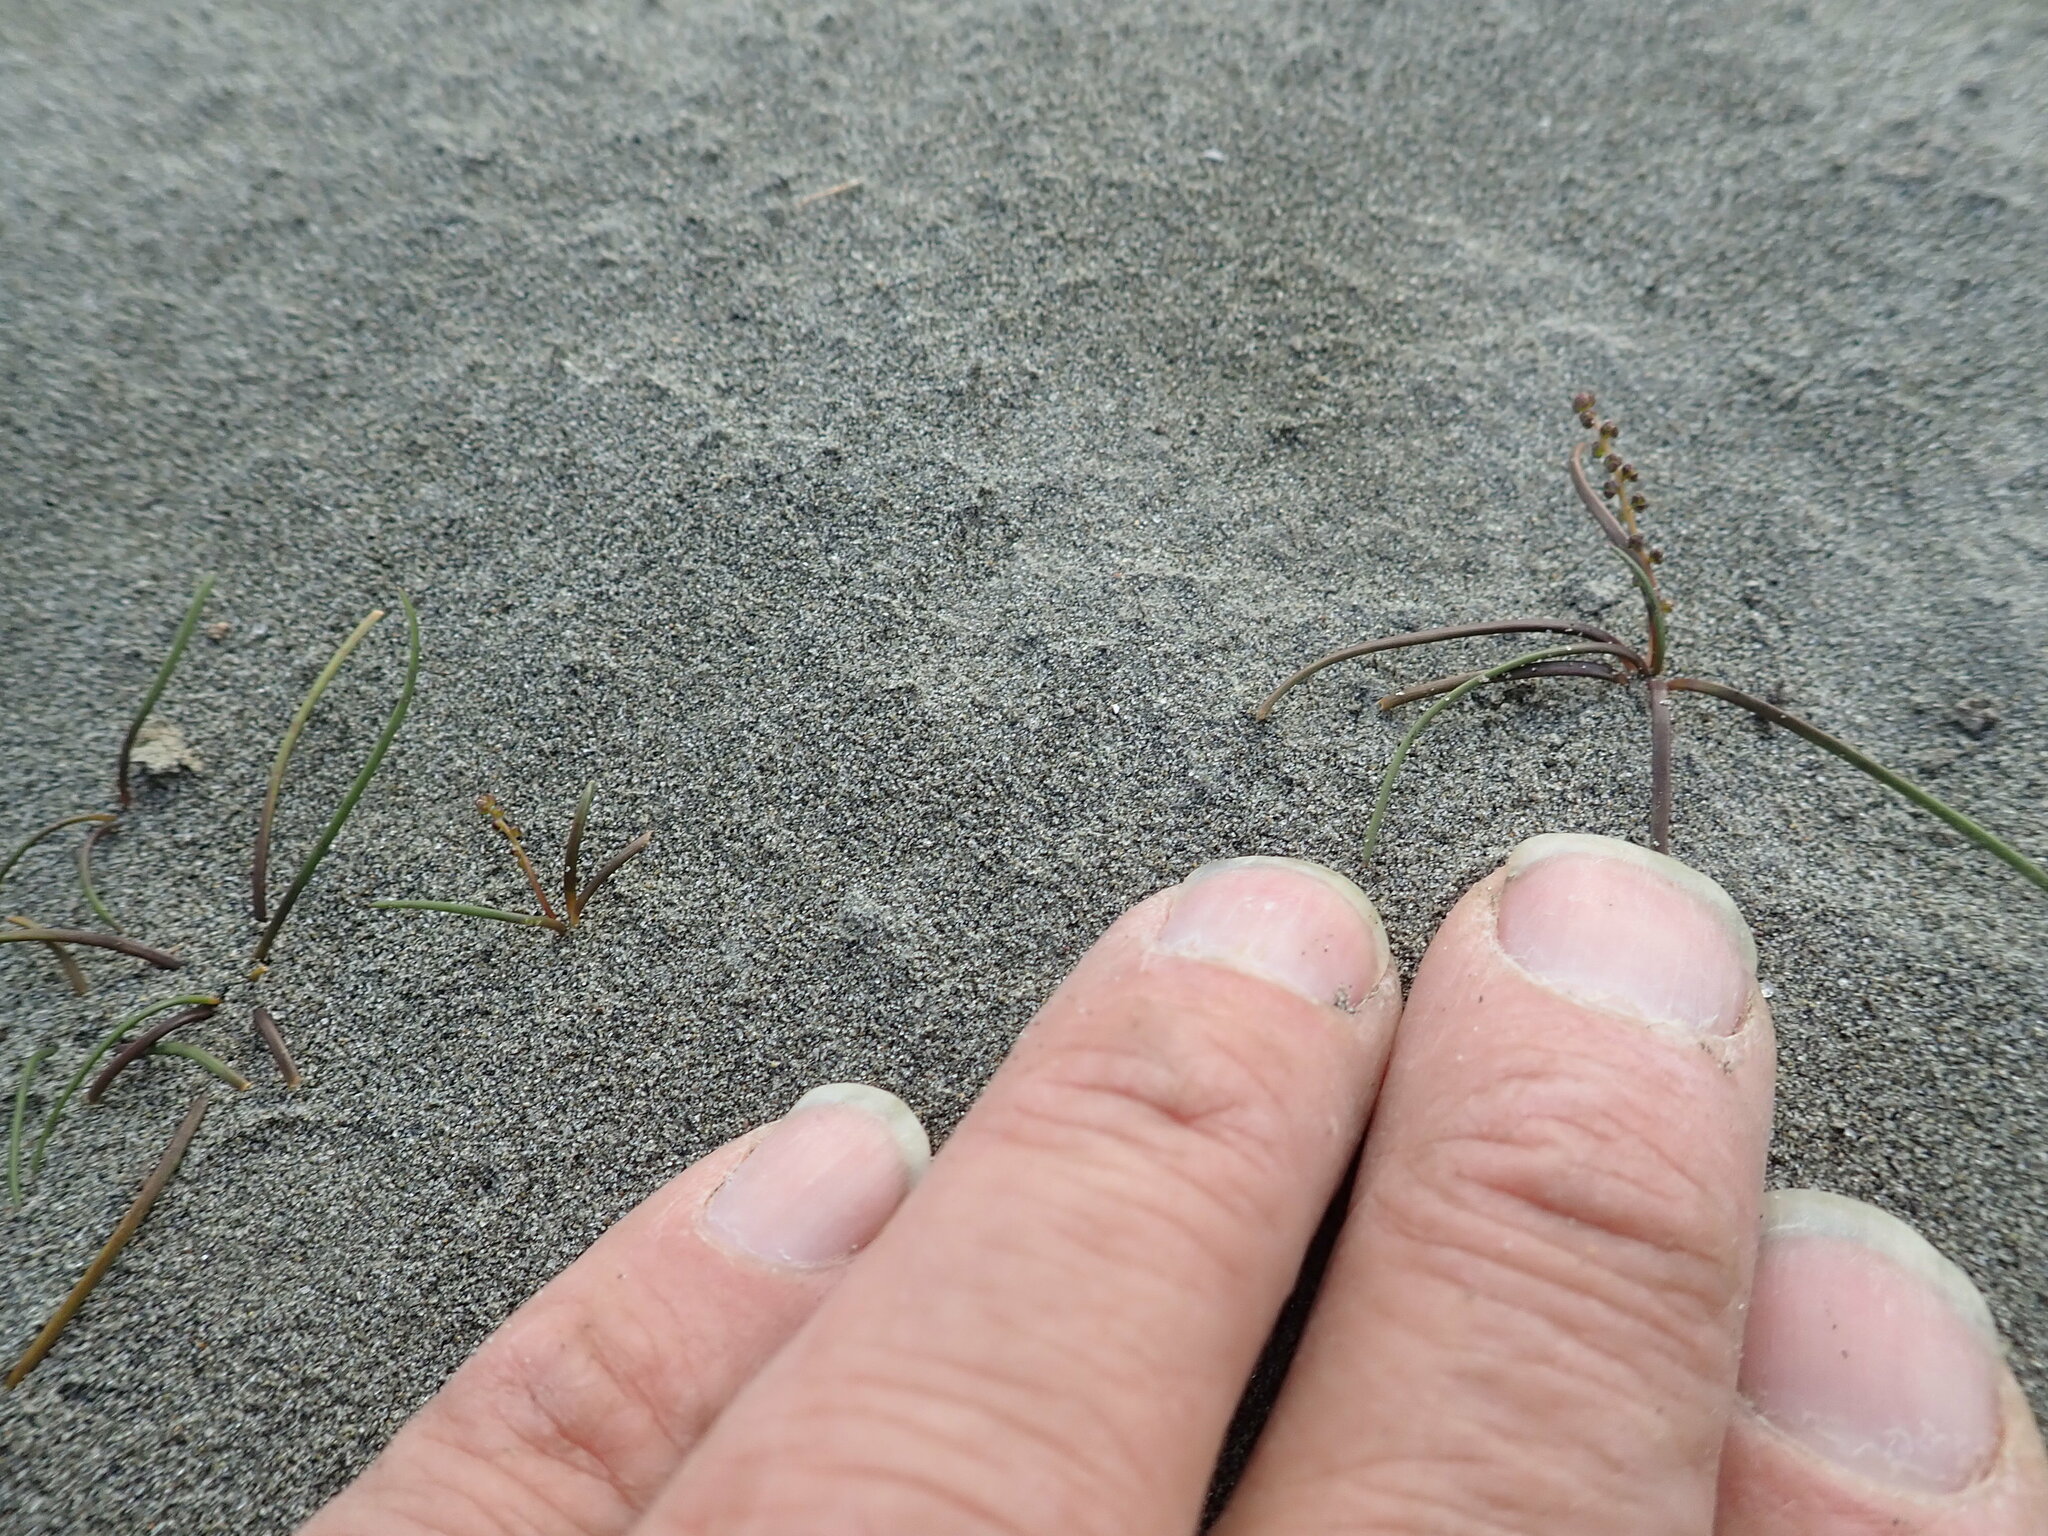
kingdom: Plantae
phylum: Tracheophyta
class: Liliopsida
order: Alismatales
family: Juncaginaceae
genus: Triglochin
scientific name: Triglochin striata
